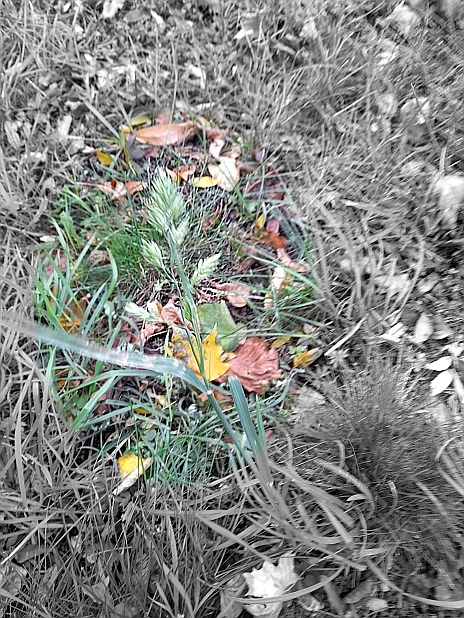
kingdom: Plantae
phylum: Tracheophyta
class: Liliopsida
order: Poales
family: Poaceae
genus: Dactylis
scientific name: Dactylis glomerata
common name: Orchardgrass
